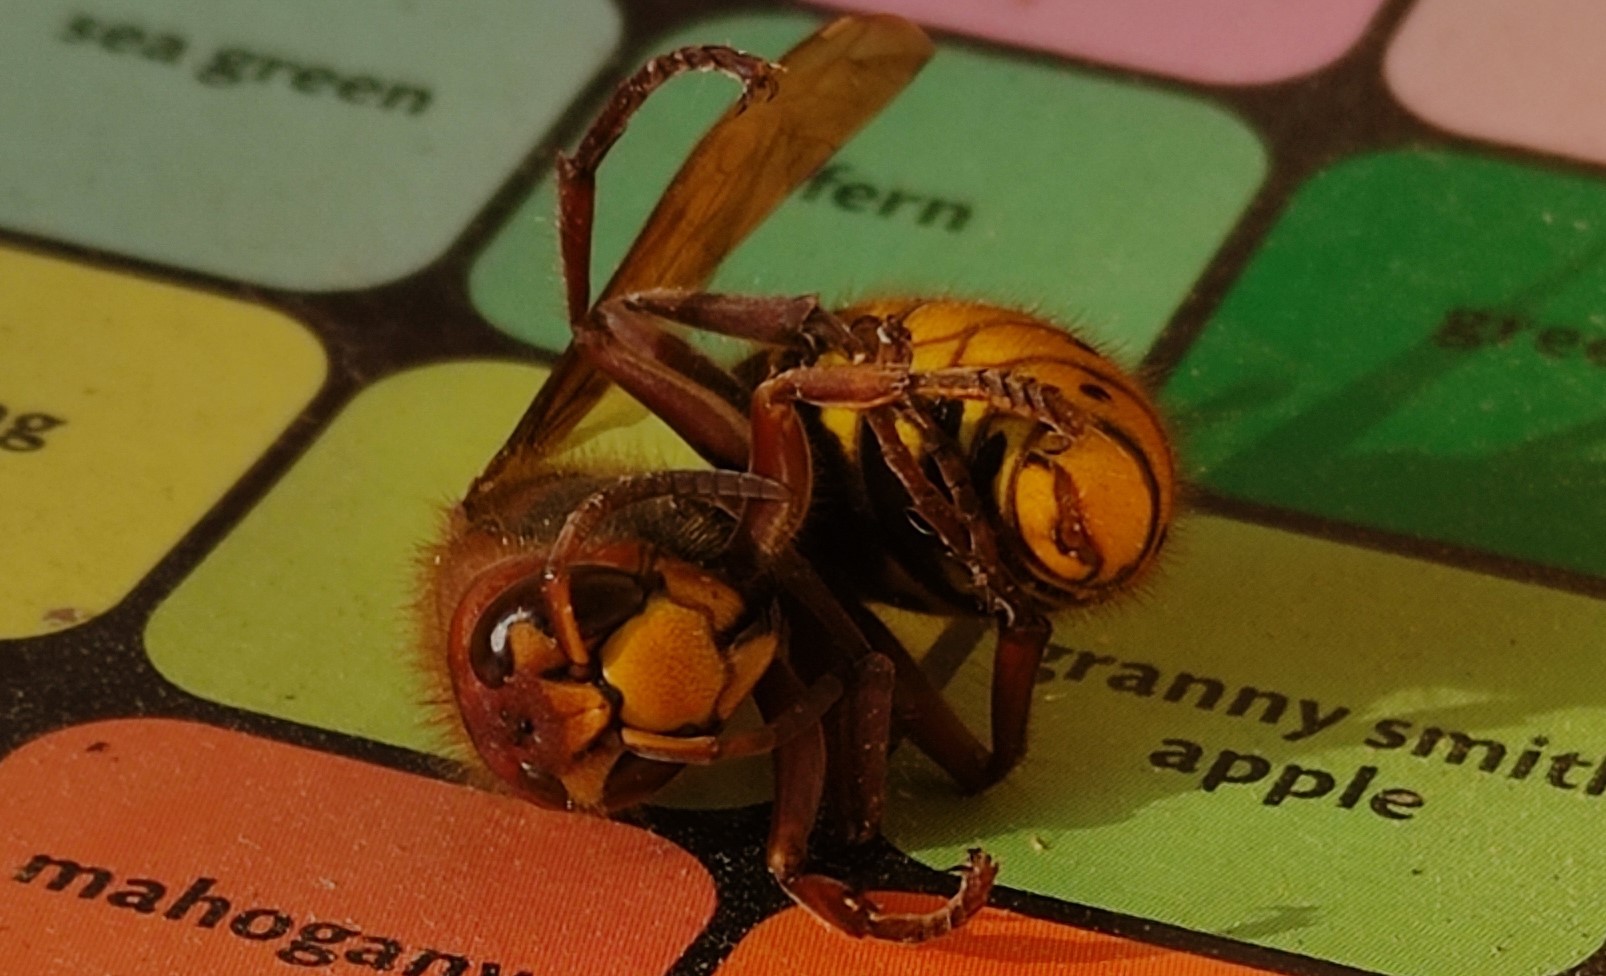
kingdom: Animalia
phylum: Arthropoda
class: Insecta
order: Hymenoptera
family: Vespidae
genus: Vespa
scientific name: Vespa crabro
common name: Hornet
